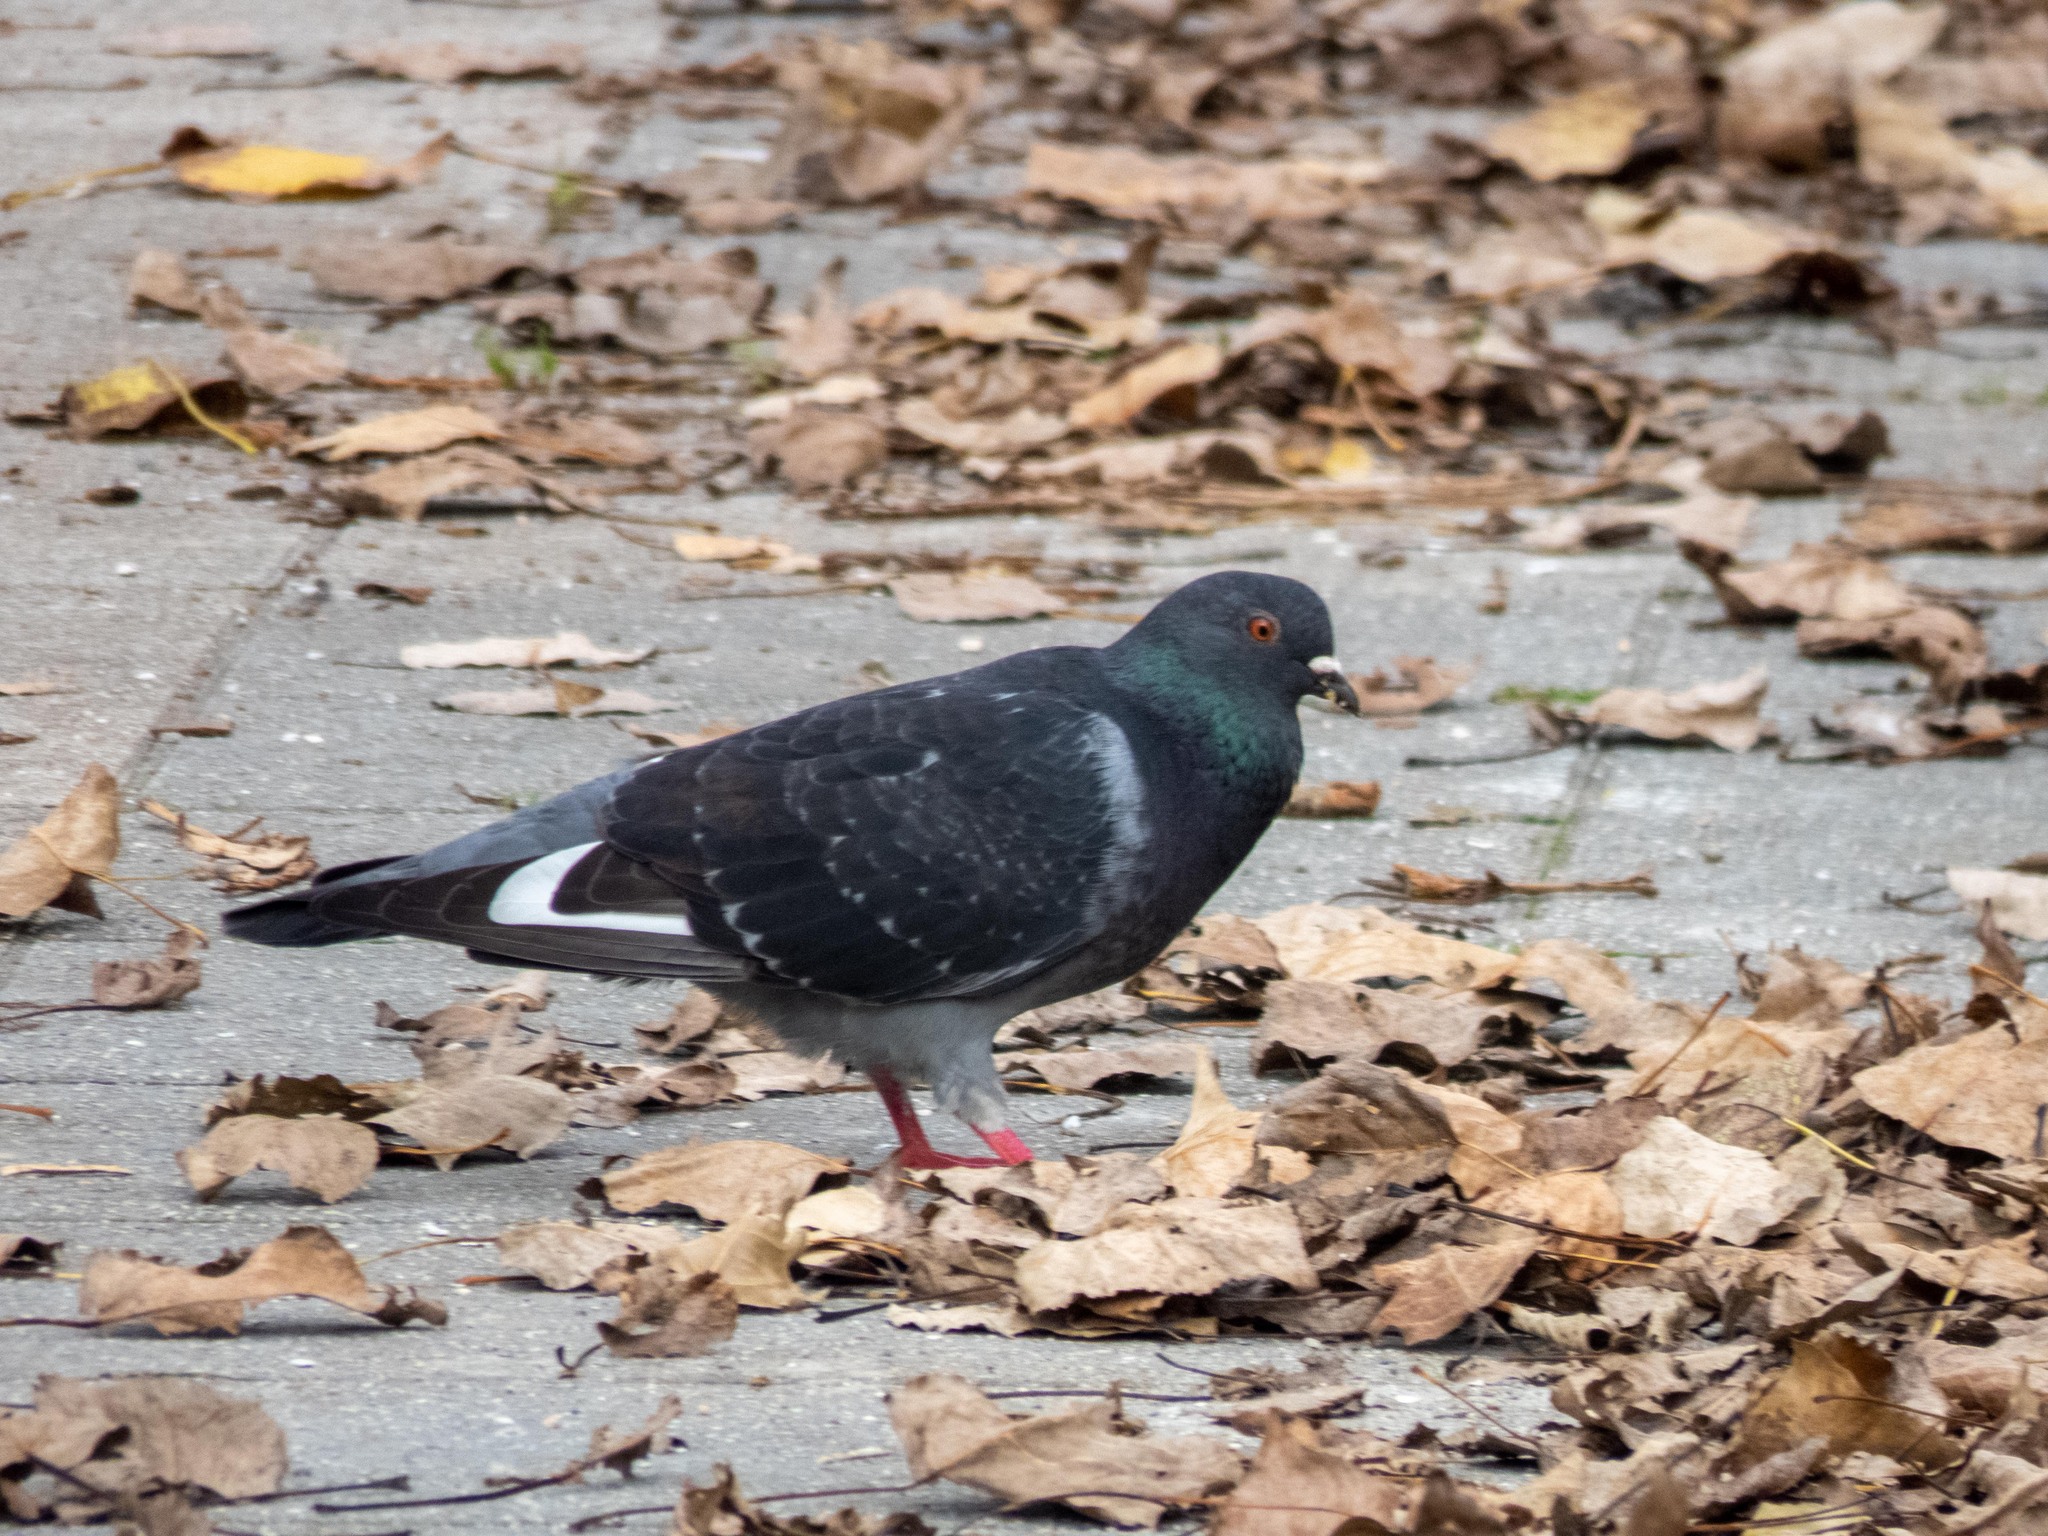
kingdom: Animalia
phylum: Chordata
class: Aves
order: Columbiformes
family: Columbidae
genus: Columba
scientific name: Columba livia
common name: Rock pigeon
